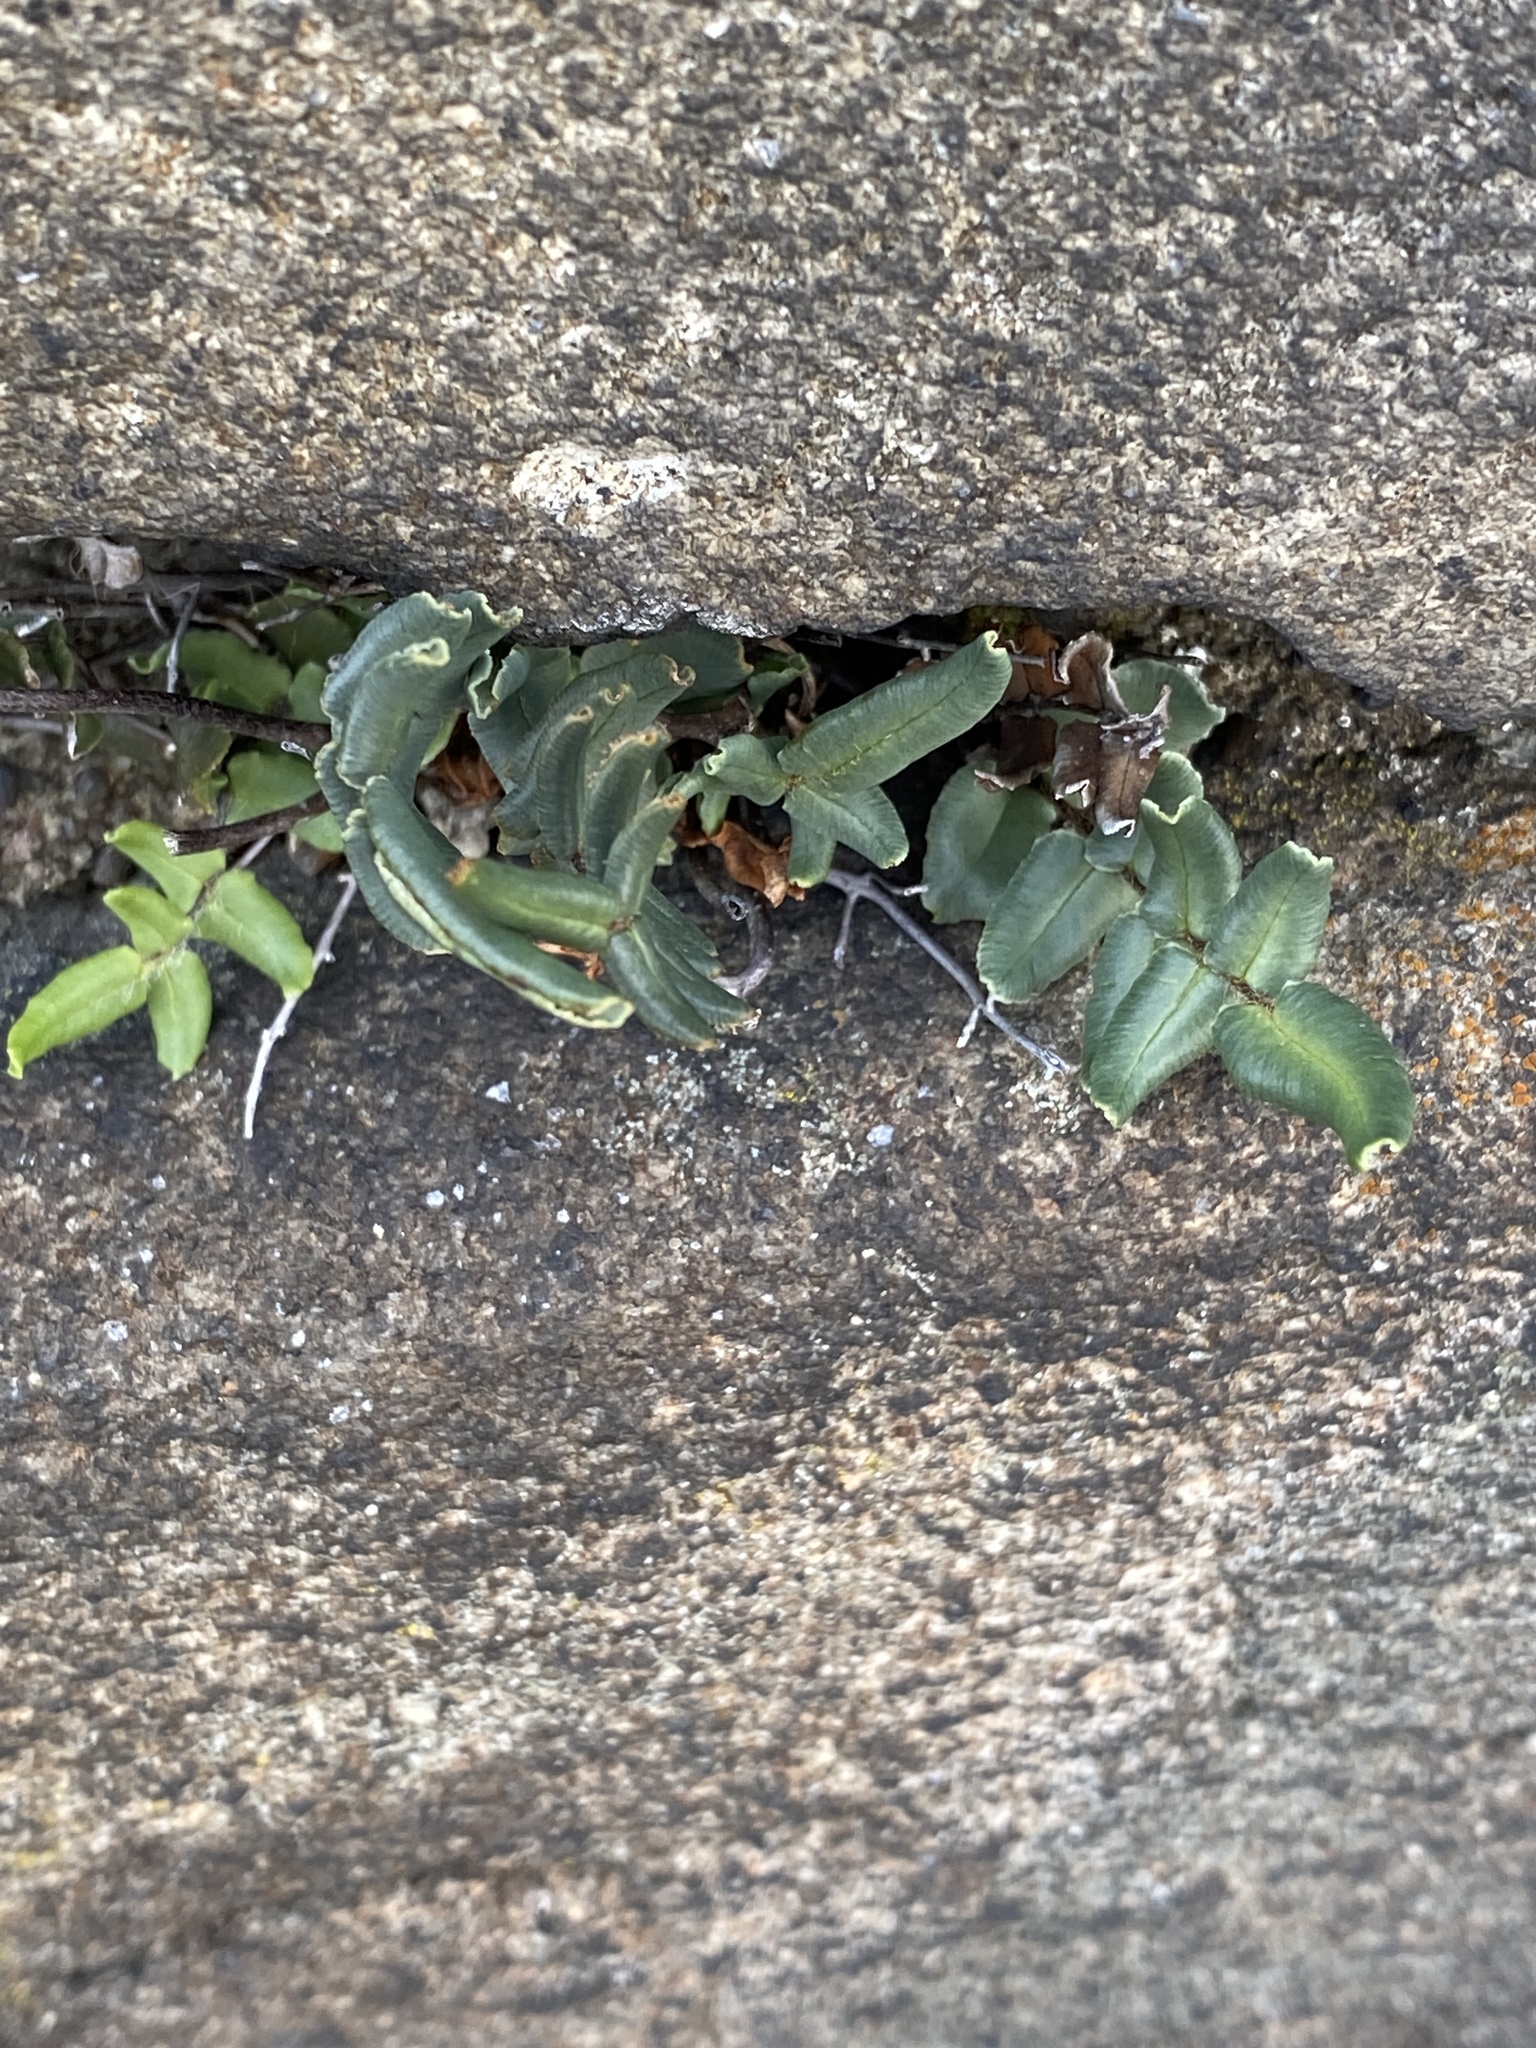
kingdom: Plantae
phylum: Tracheophyta
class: Polypodiopsida
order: Polypodiales
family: Pteridaceae
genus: Pellaea
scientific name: Pellaea atropurpurea
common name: Hairy cliffbrake
